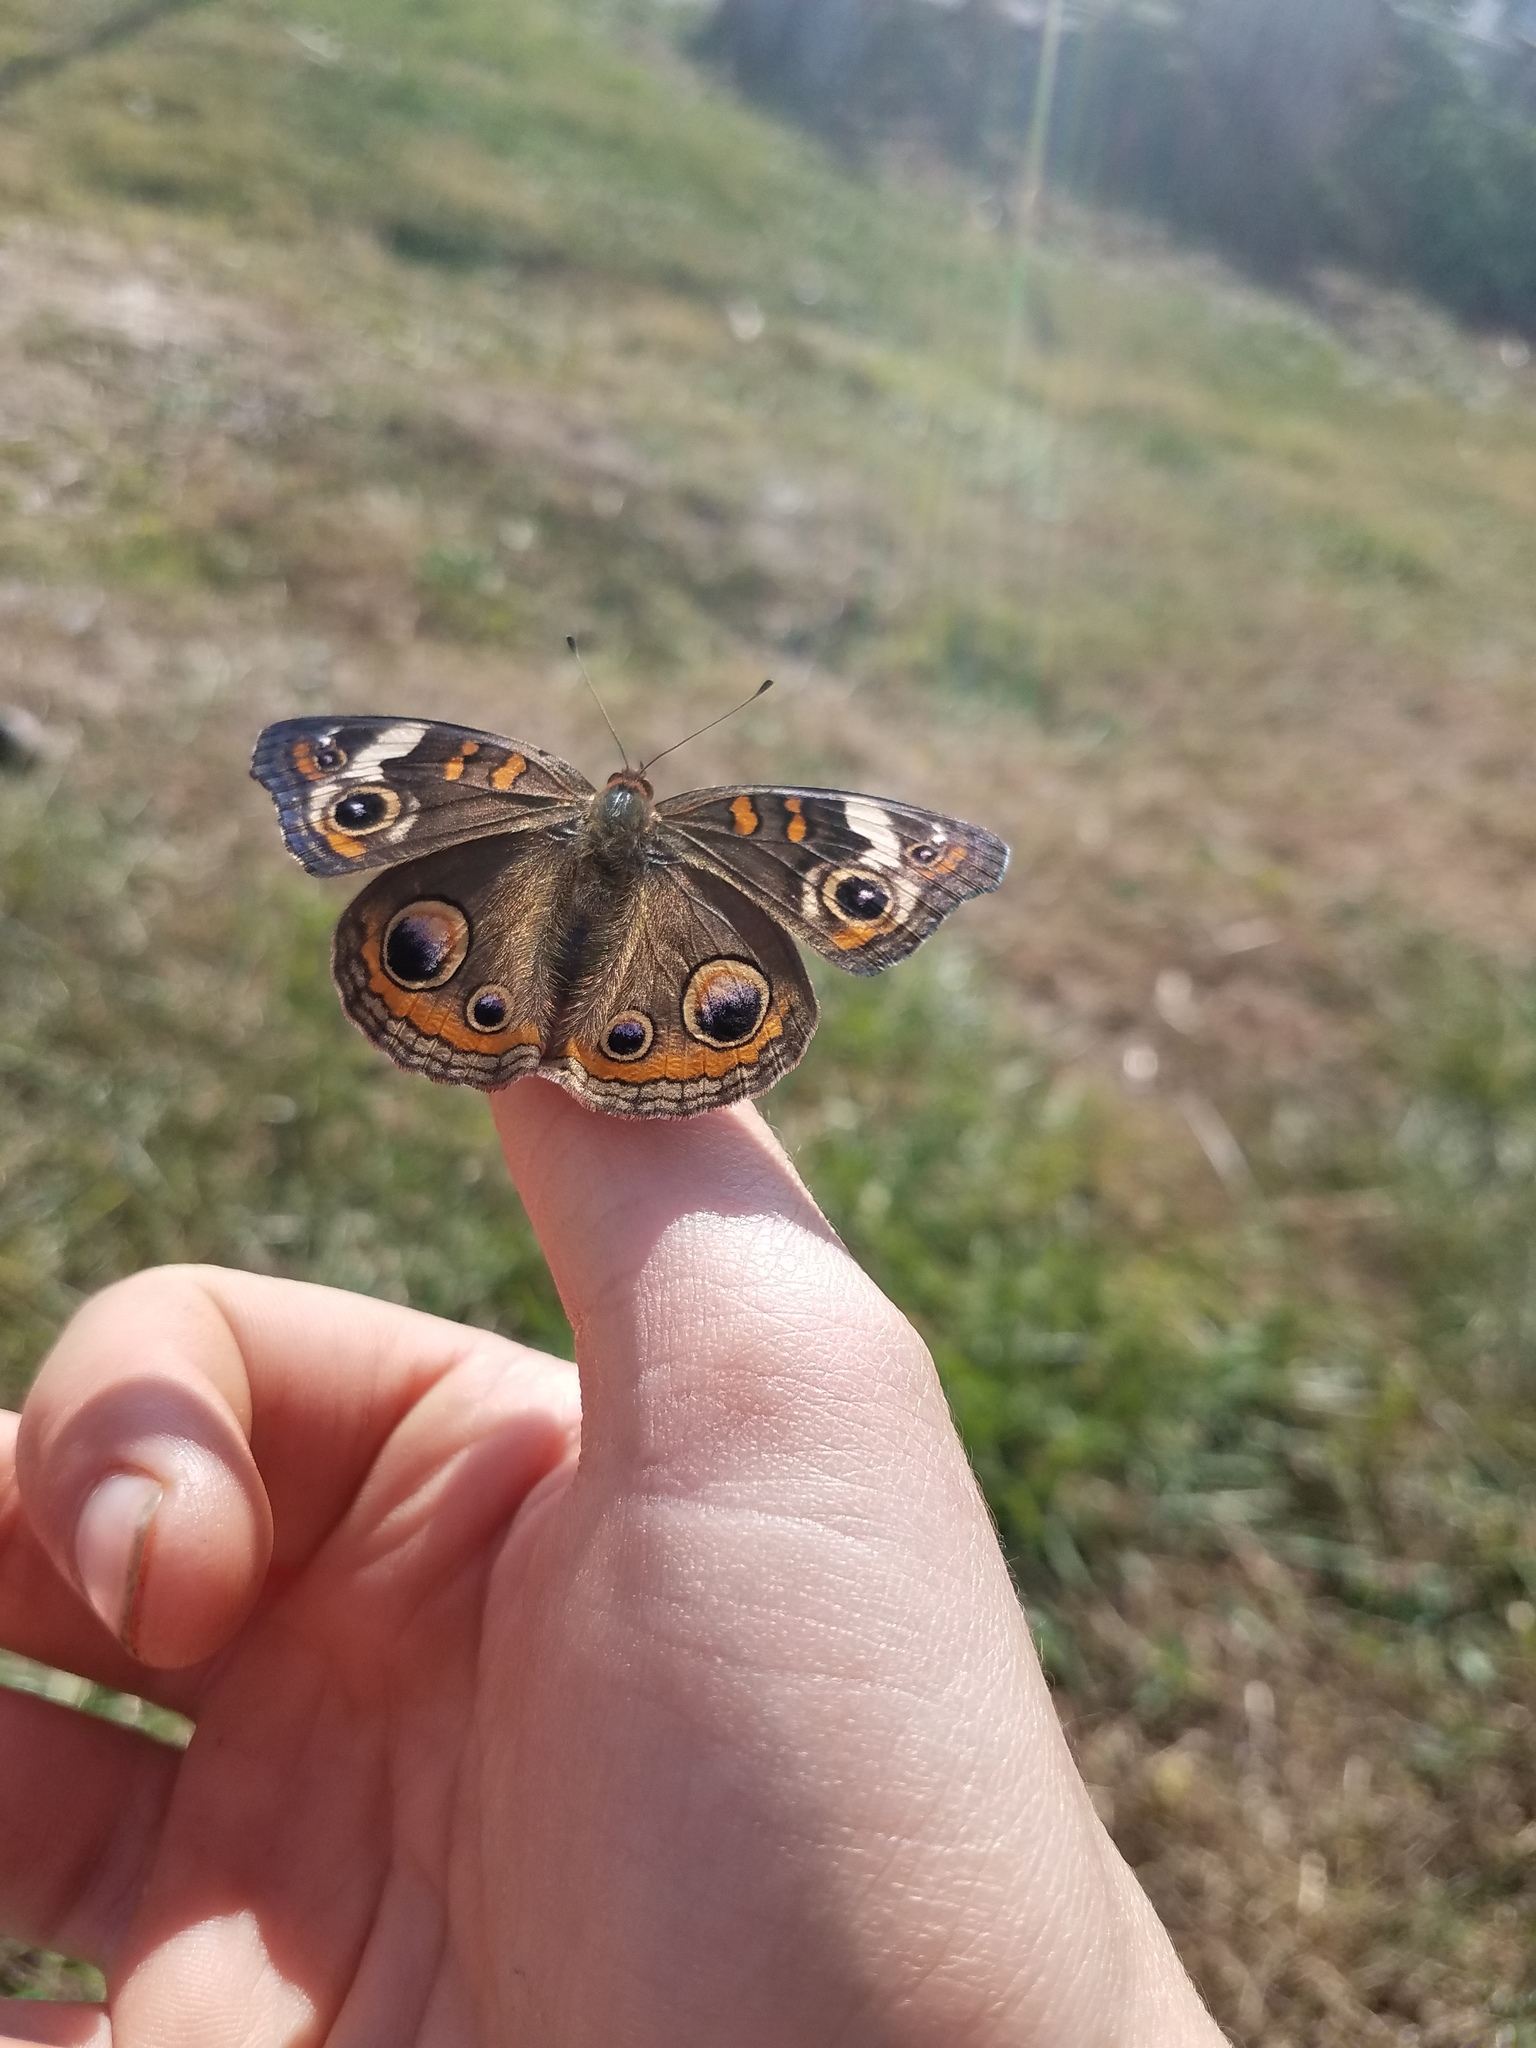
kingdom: Animalia
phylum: Arthropoda
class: Insecta
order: Lepidoptera
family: Nymphalidae
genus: Junonia
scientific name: Junonia coenia
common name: Common buckeye
